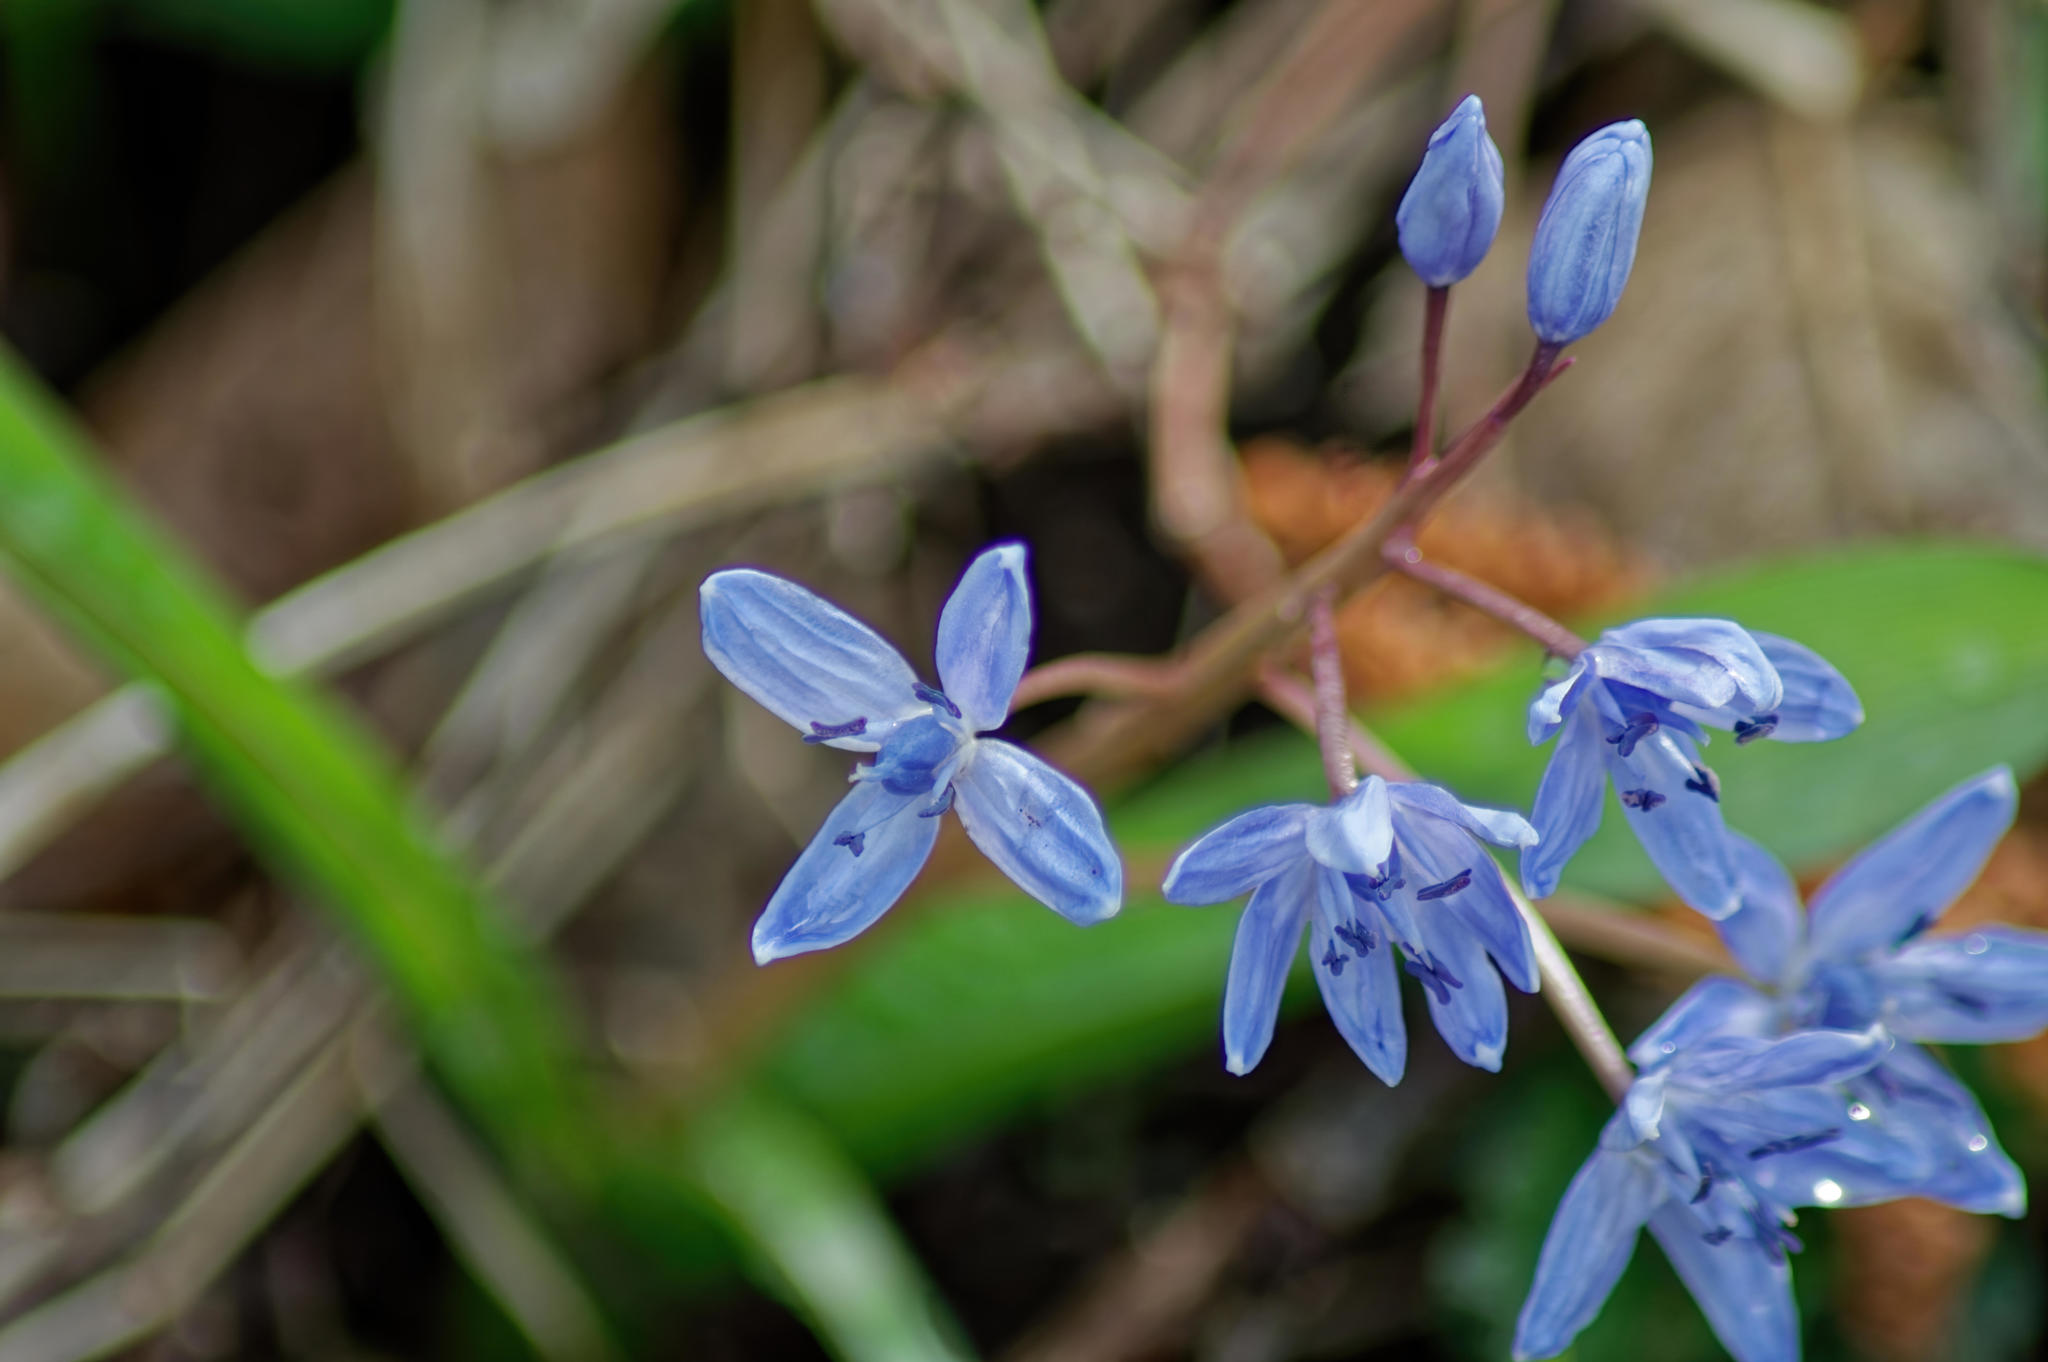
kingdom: Plantae
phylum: Tracheophyta
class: Liliopsida
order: Asparagales
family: Asparagaceae
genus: Scilla
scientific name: Scilla bifolia
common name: Alpine squill
